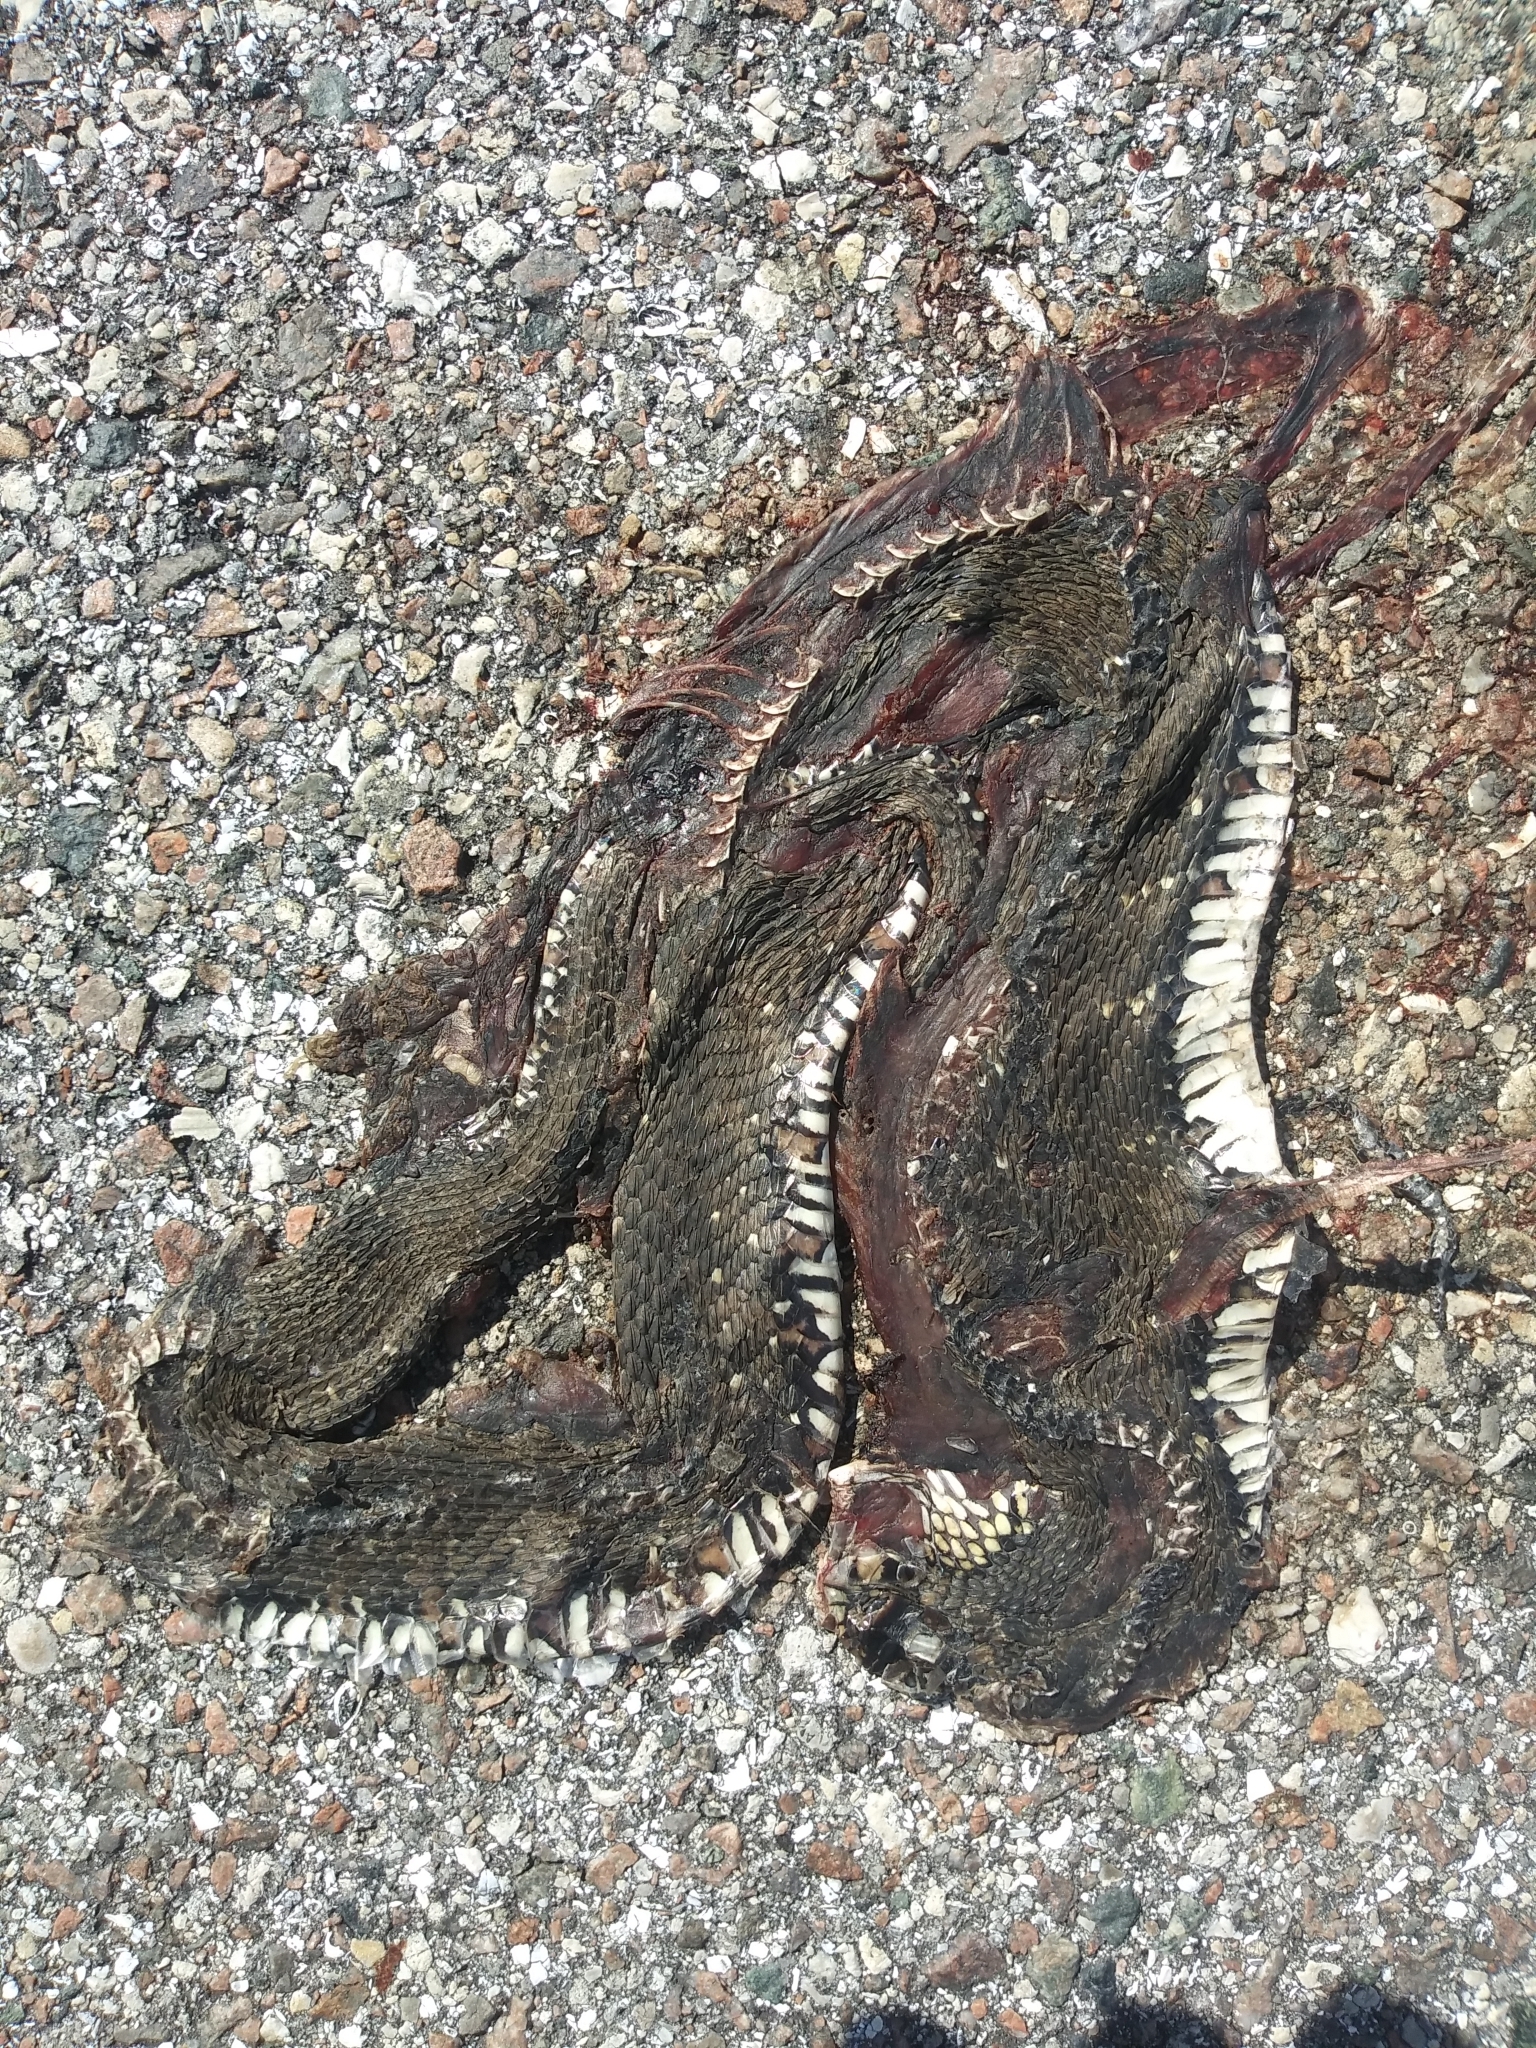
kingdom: Animalia
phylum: Chordata
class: Squamata
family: Colubridae
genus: Nerodia
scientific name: Nerodia fasciata
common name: Southern water snake
